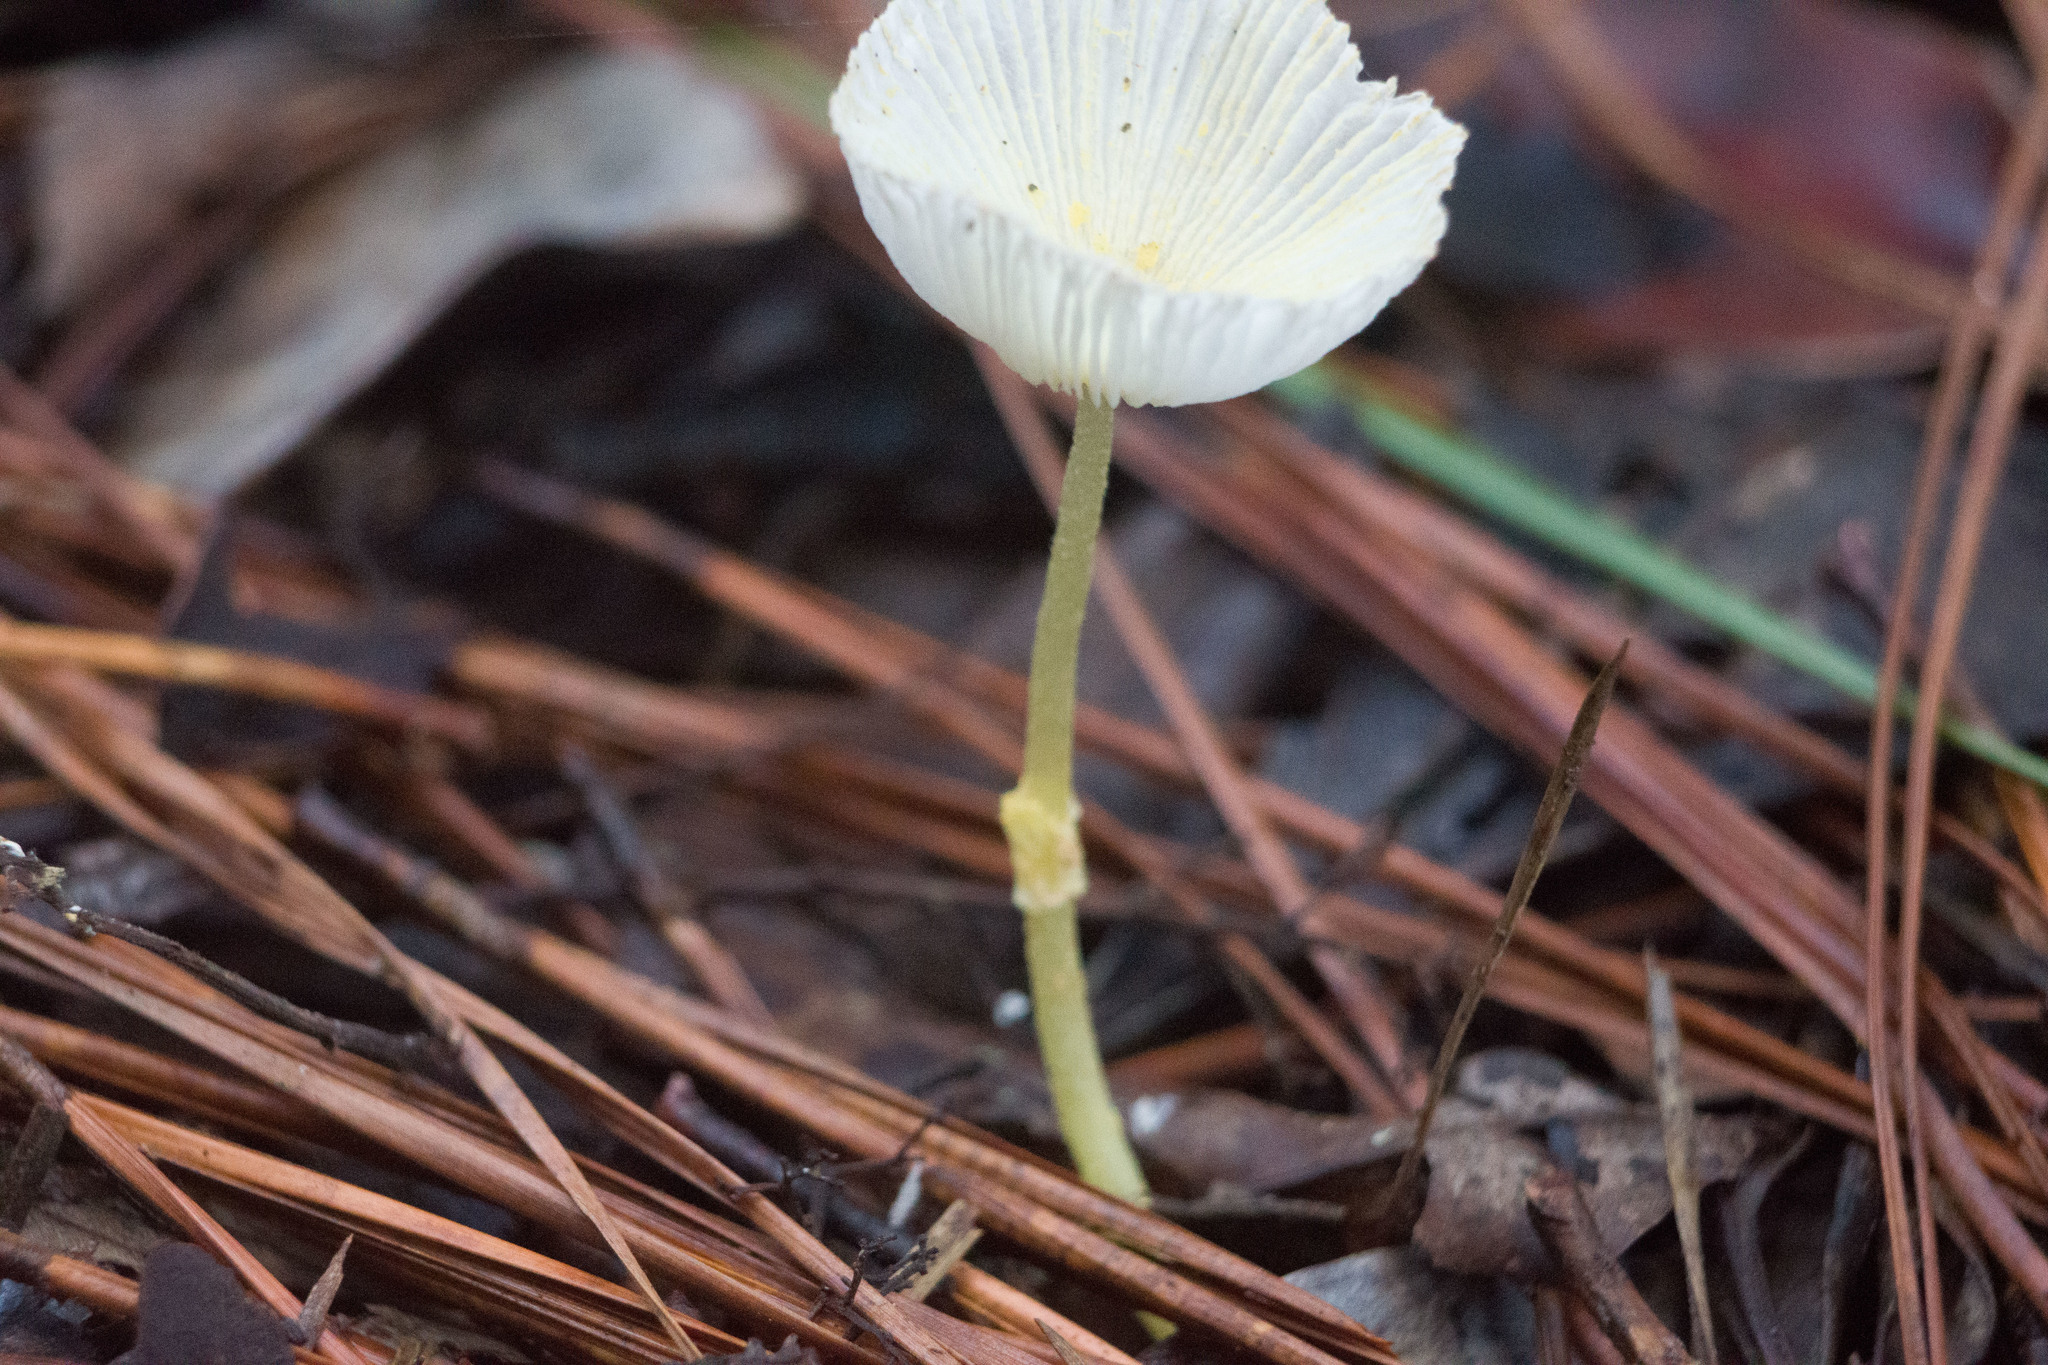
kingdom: Fungi
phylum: Basidiomycota
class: Agaricomycetes
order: Agaricales
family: Agaricaceae
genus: Leucocoprinus
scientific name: Leucocoprinus fragilissimus
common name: Fragile dapperling
